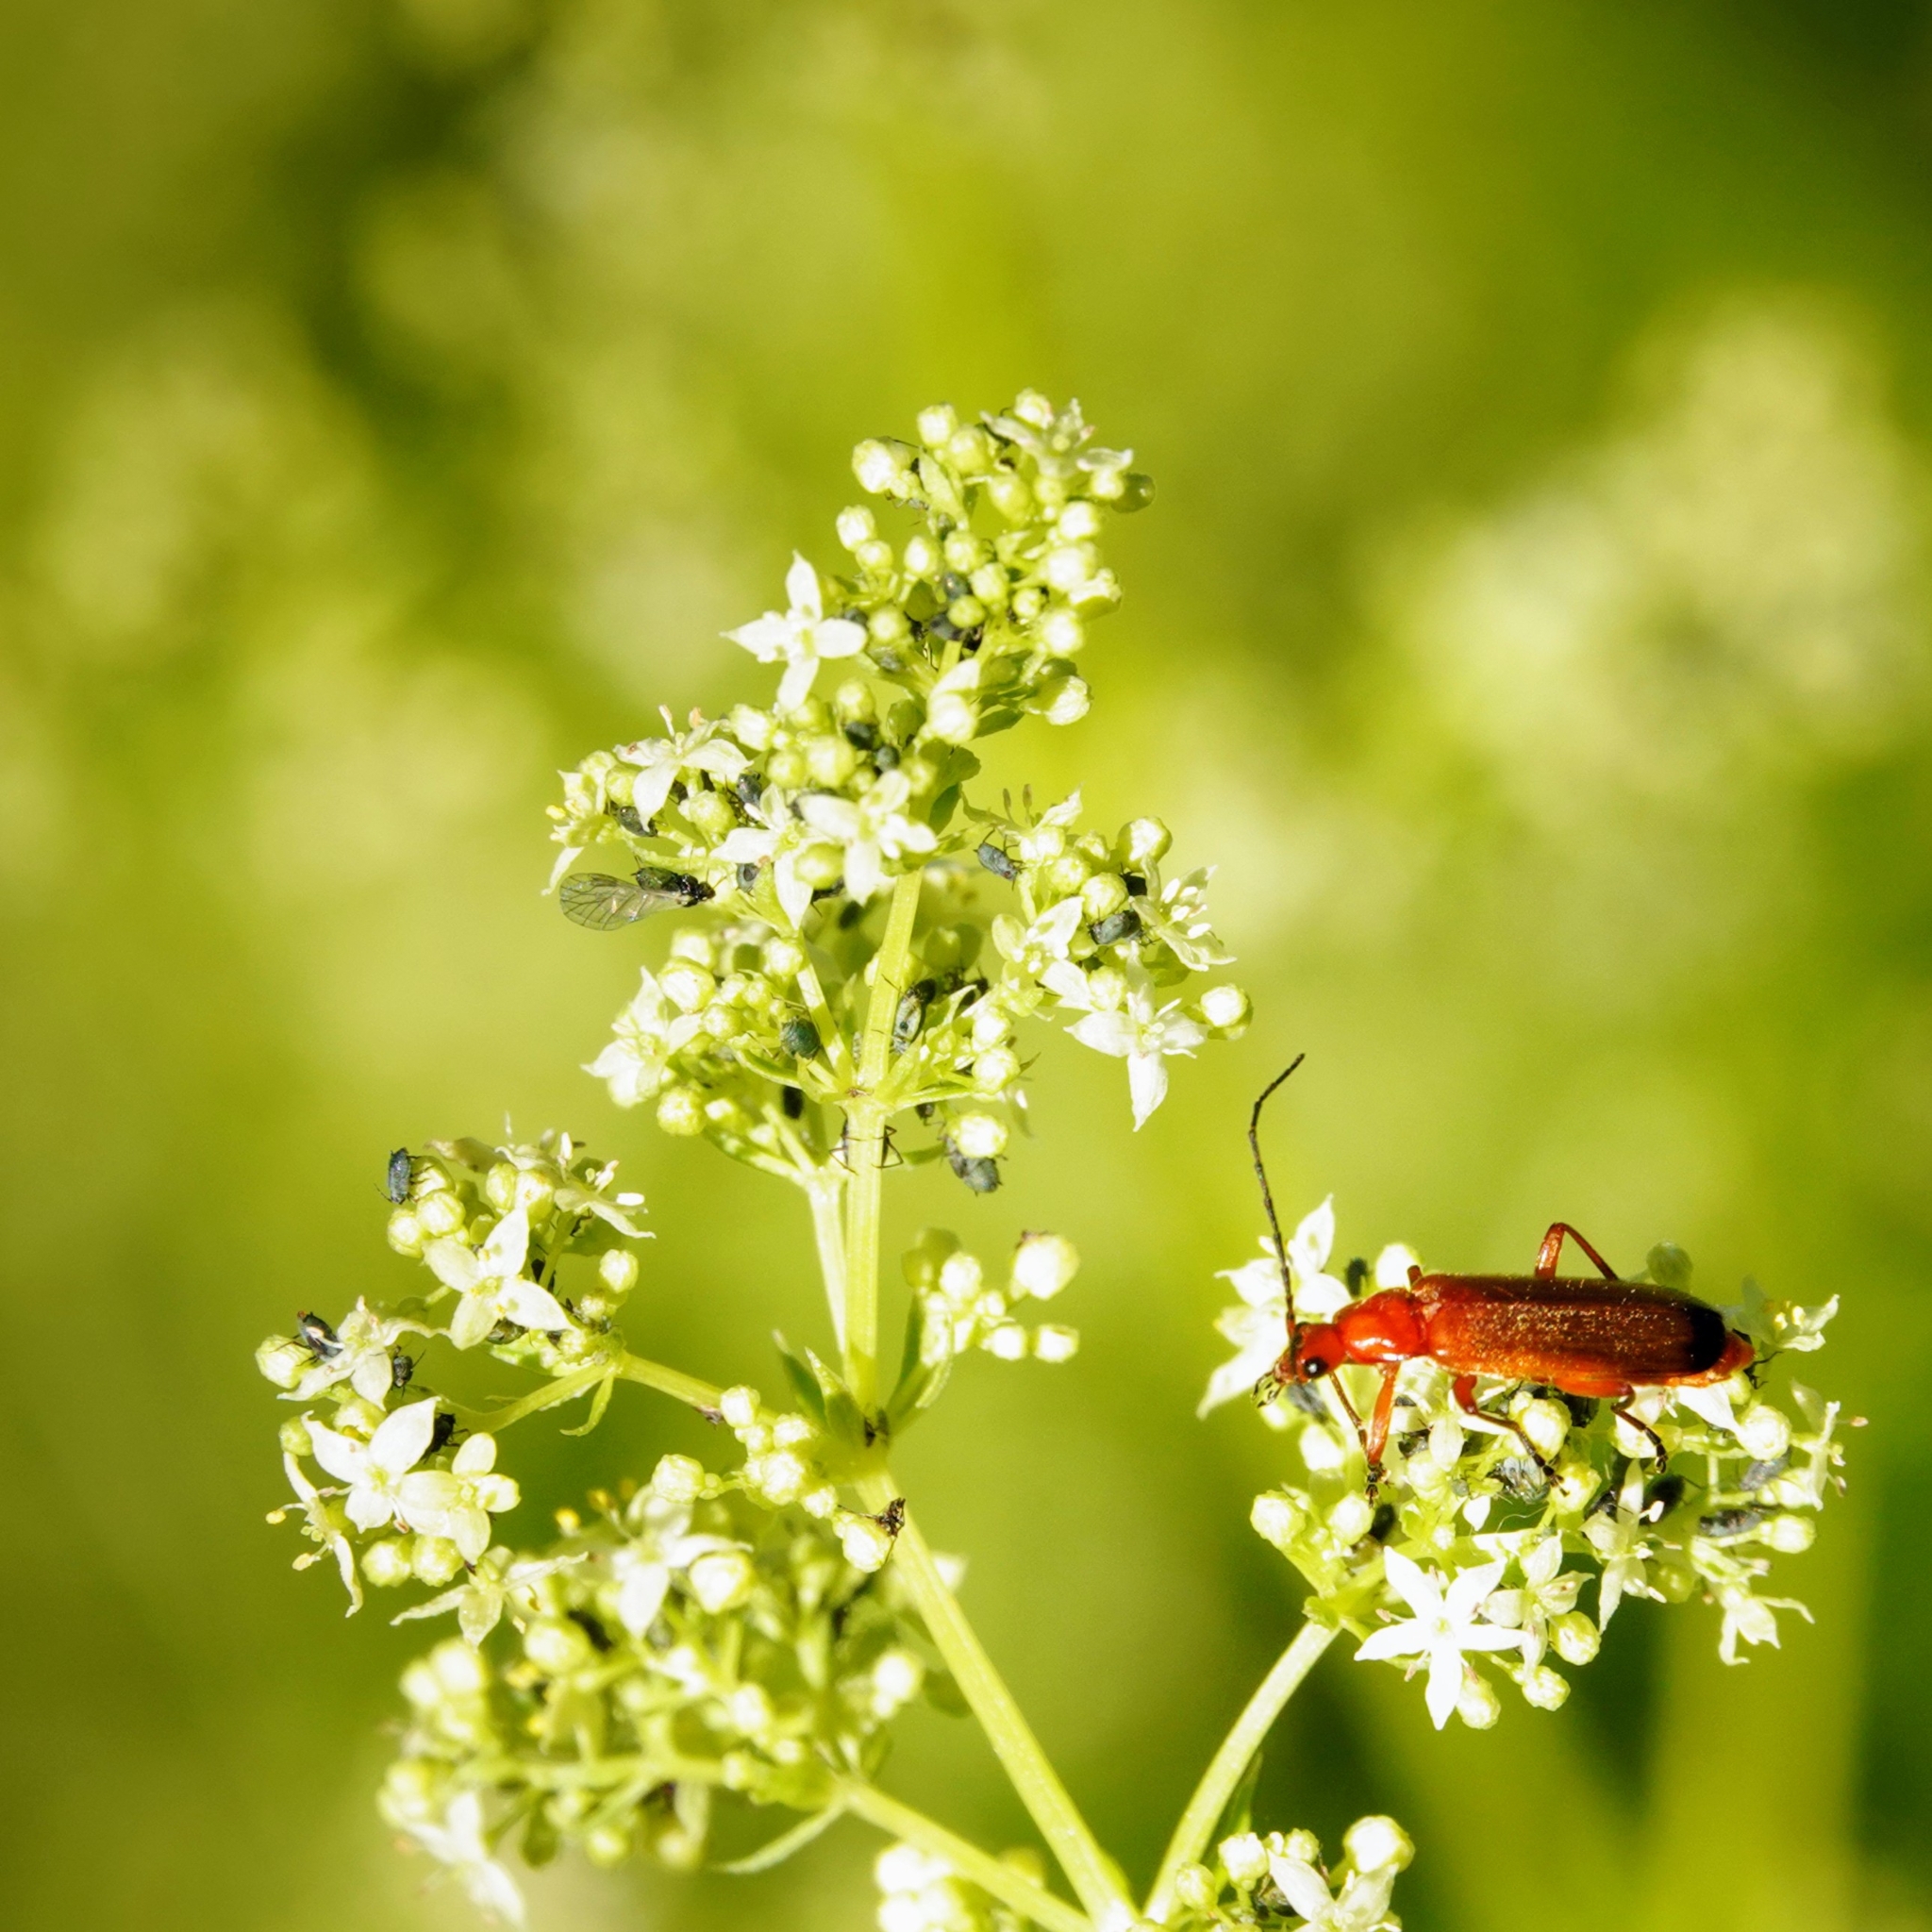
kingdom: Animalia
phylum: Arthropoda
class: Insecta
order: Coleoptera
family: Cantharidae
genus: Rhagonycha
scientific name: Rhagonycha fulva
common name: Common red soldier beetle
